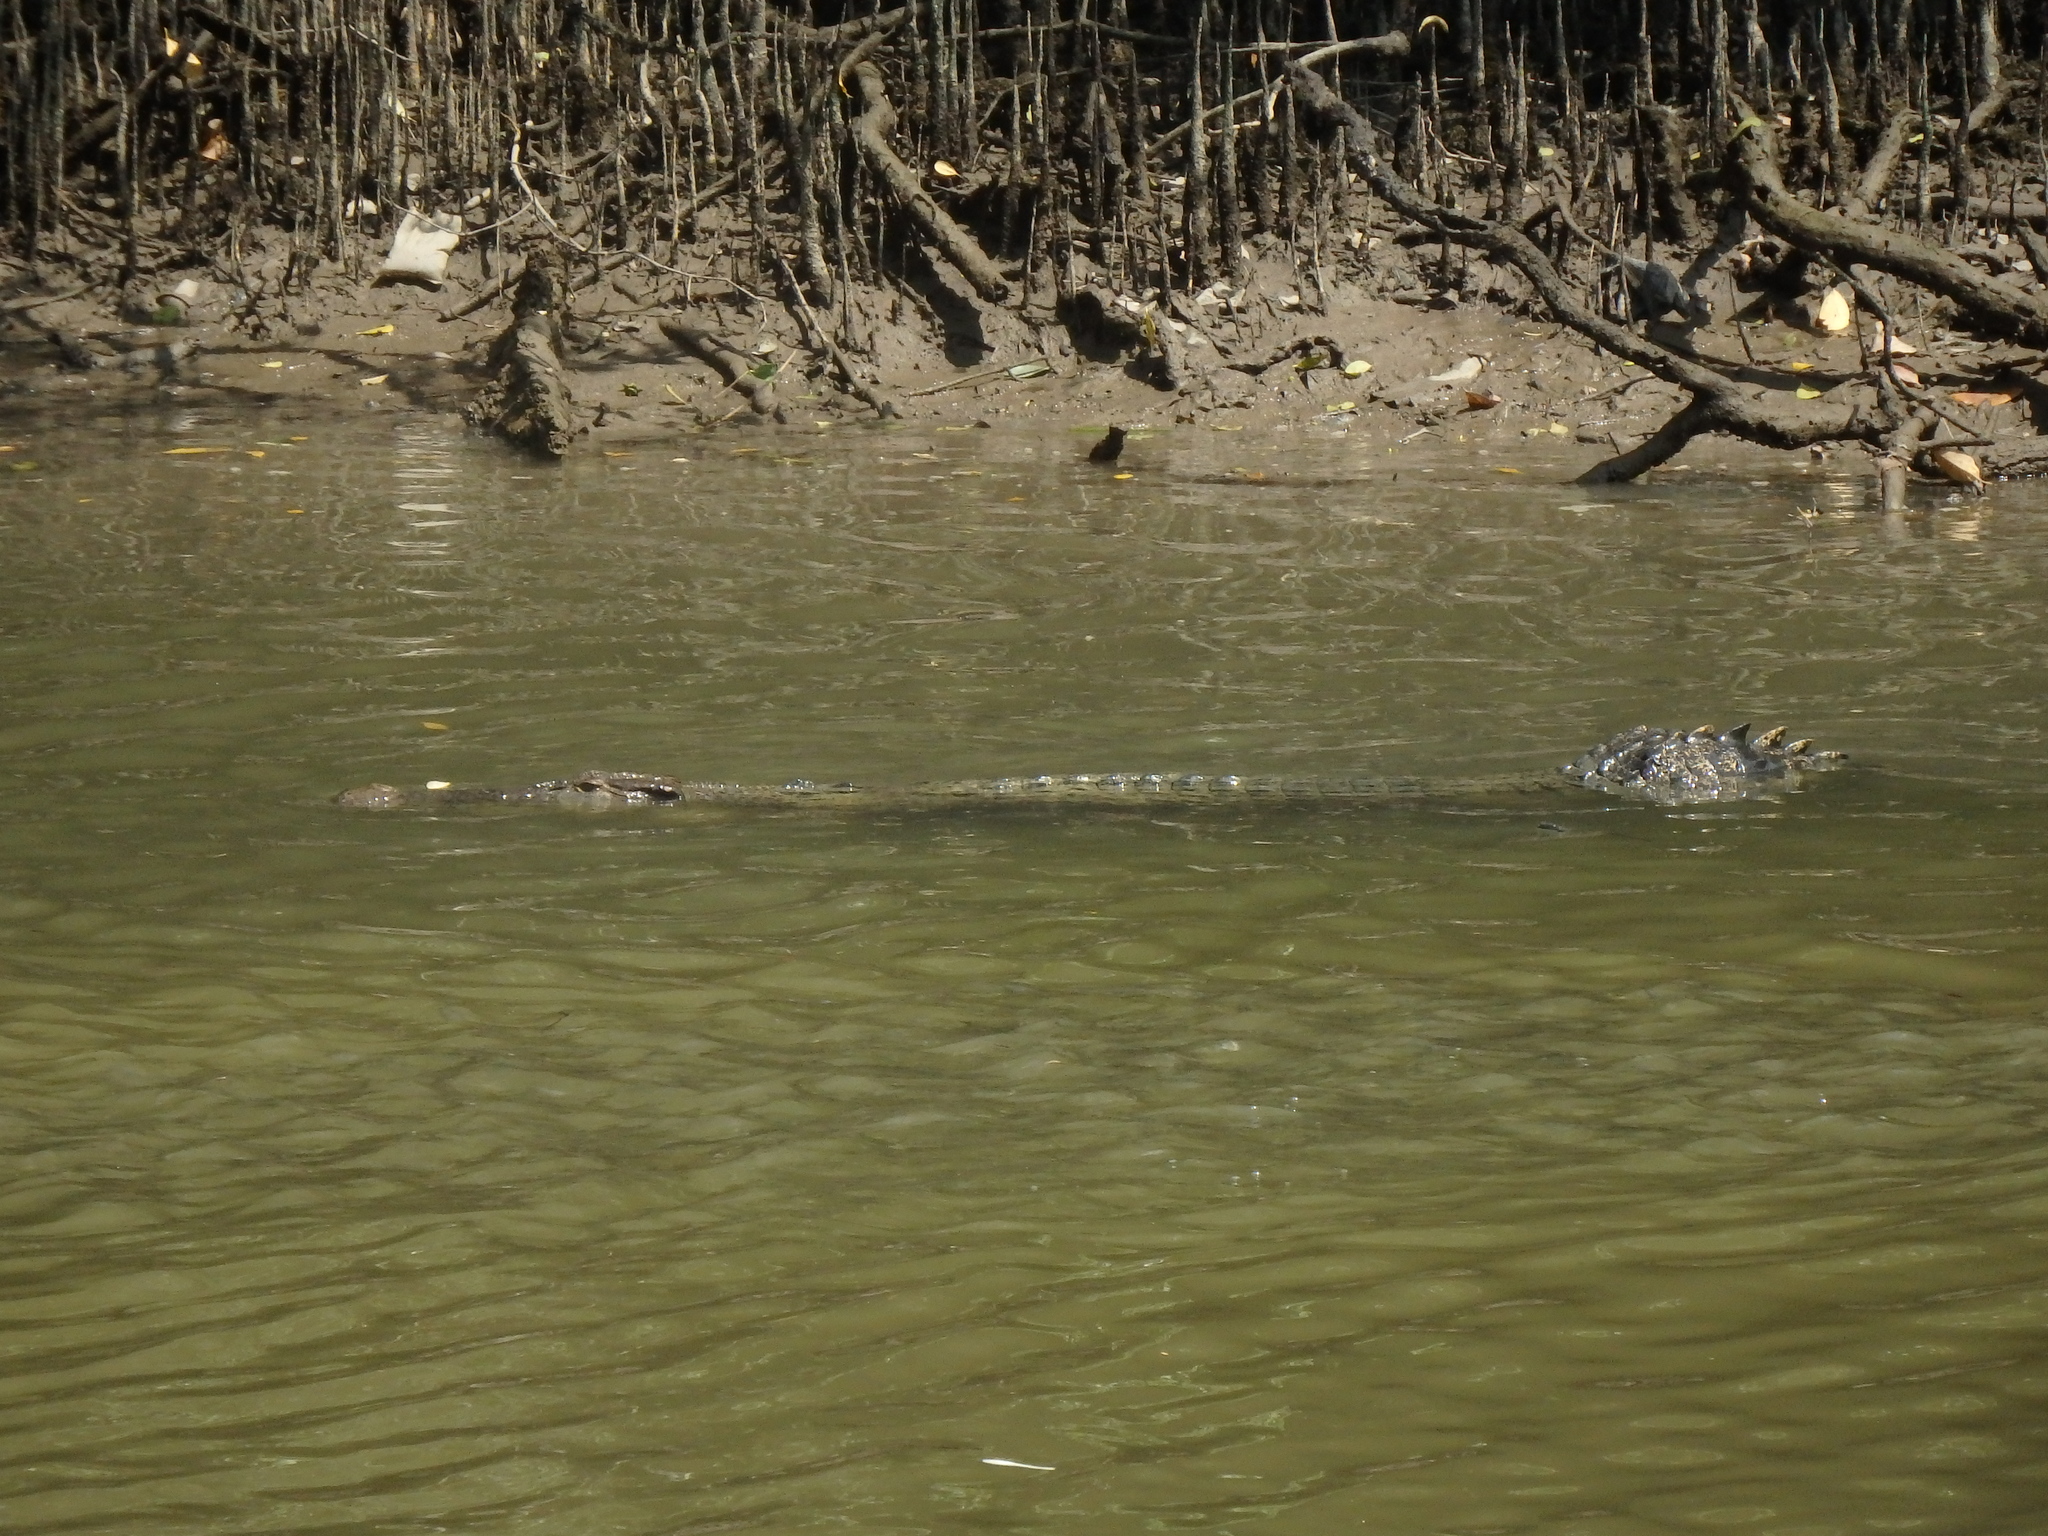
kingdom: Animalia
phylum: Chordata
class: Crocodylia
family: Crocodylidae
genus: Crocodylus
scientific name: Crocodylus porosus
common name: Saltwater crocodile
